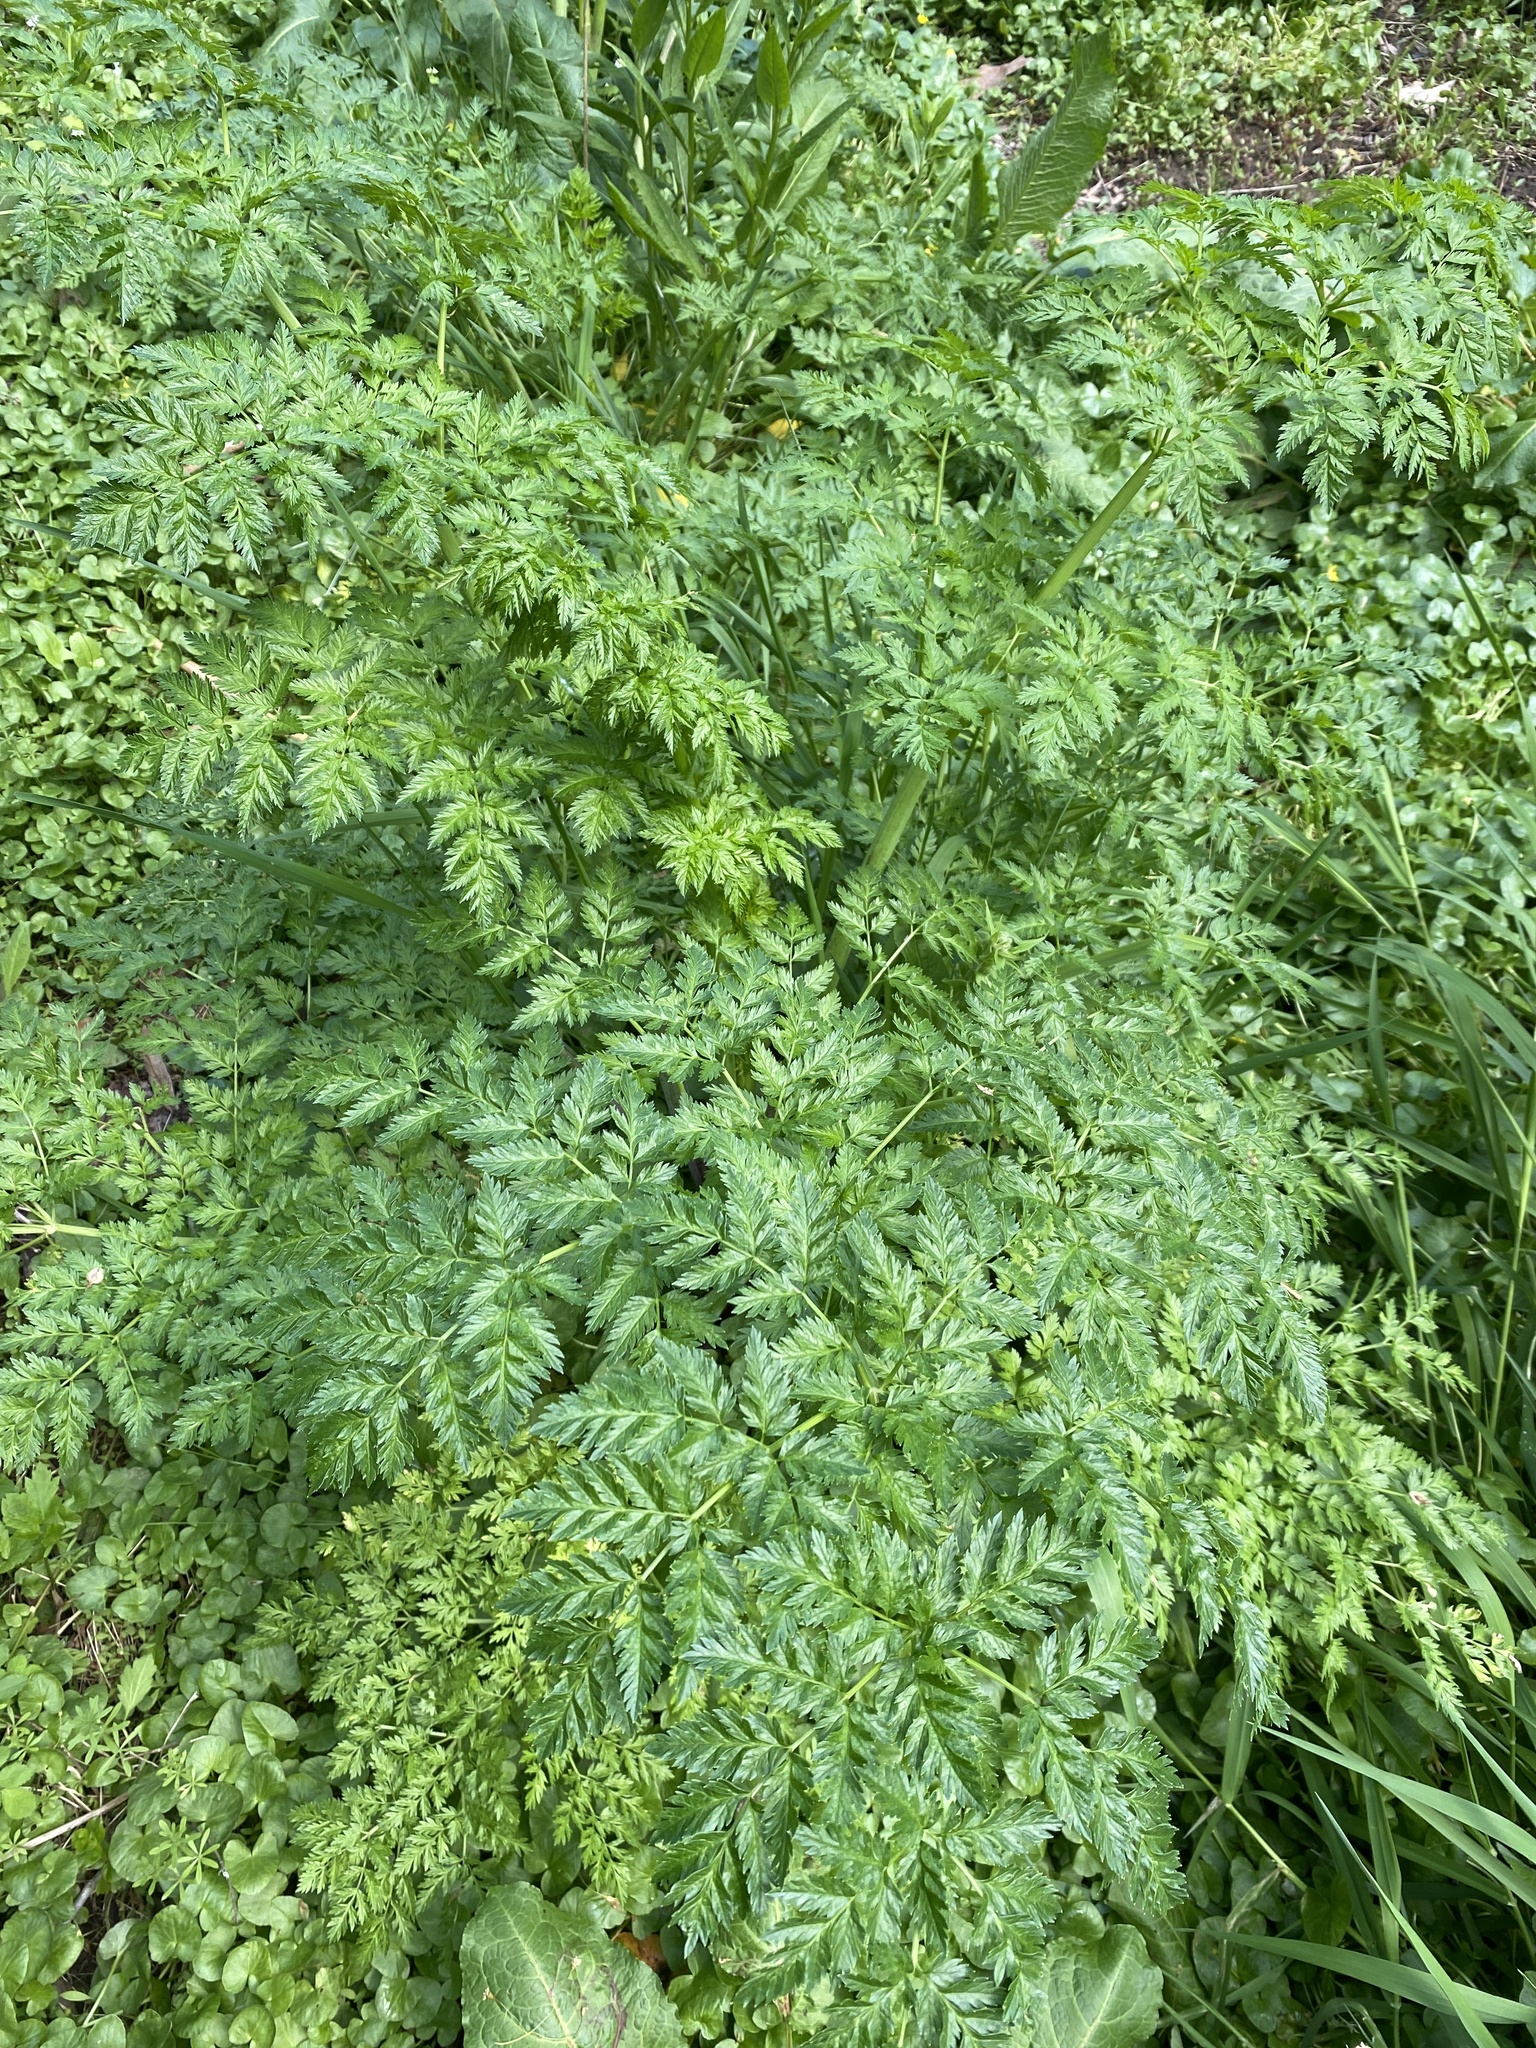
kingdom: Plantae
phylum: Tracheophyta
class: Magnoliopsida
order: Apiales
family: Apiaceae
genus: Conium
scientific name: Conium maculatum
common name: Hemlock
